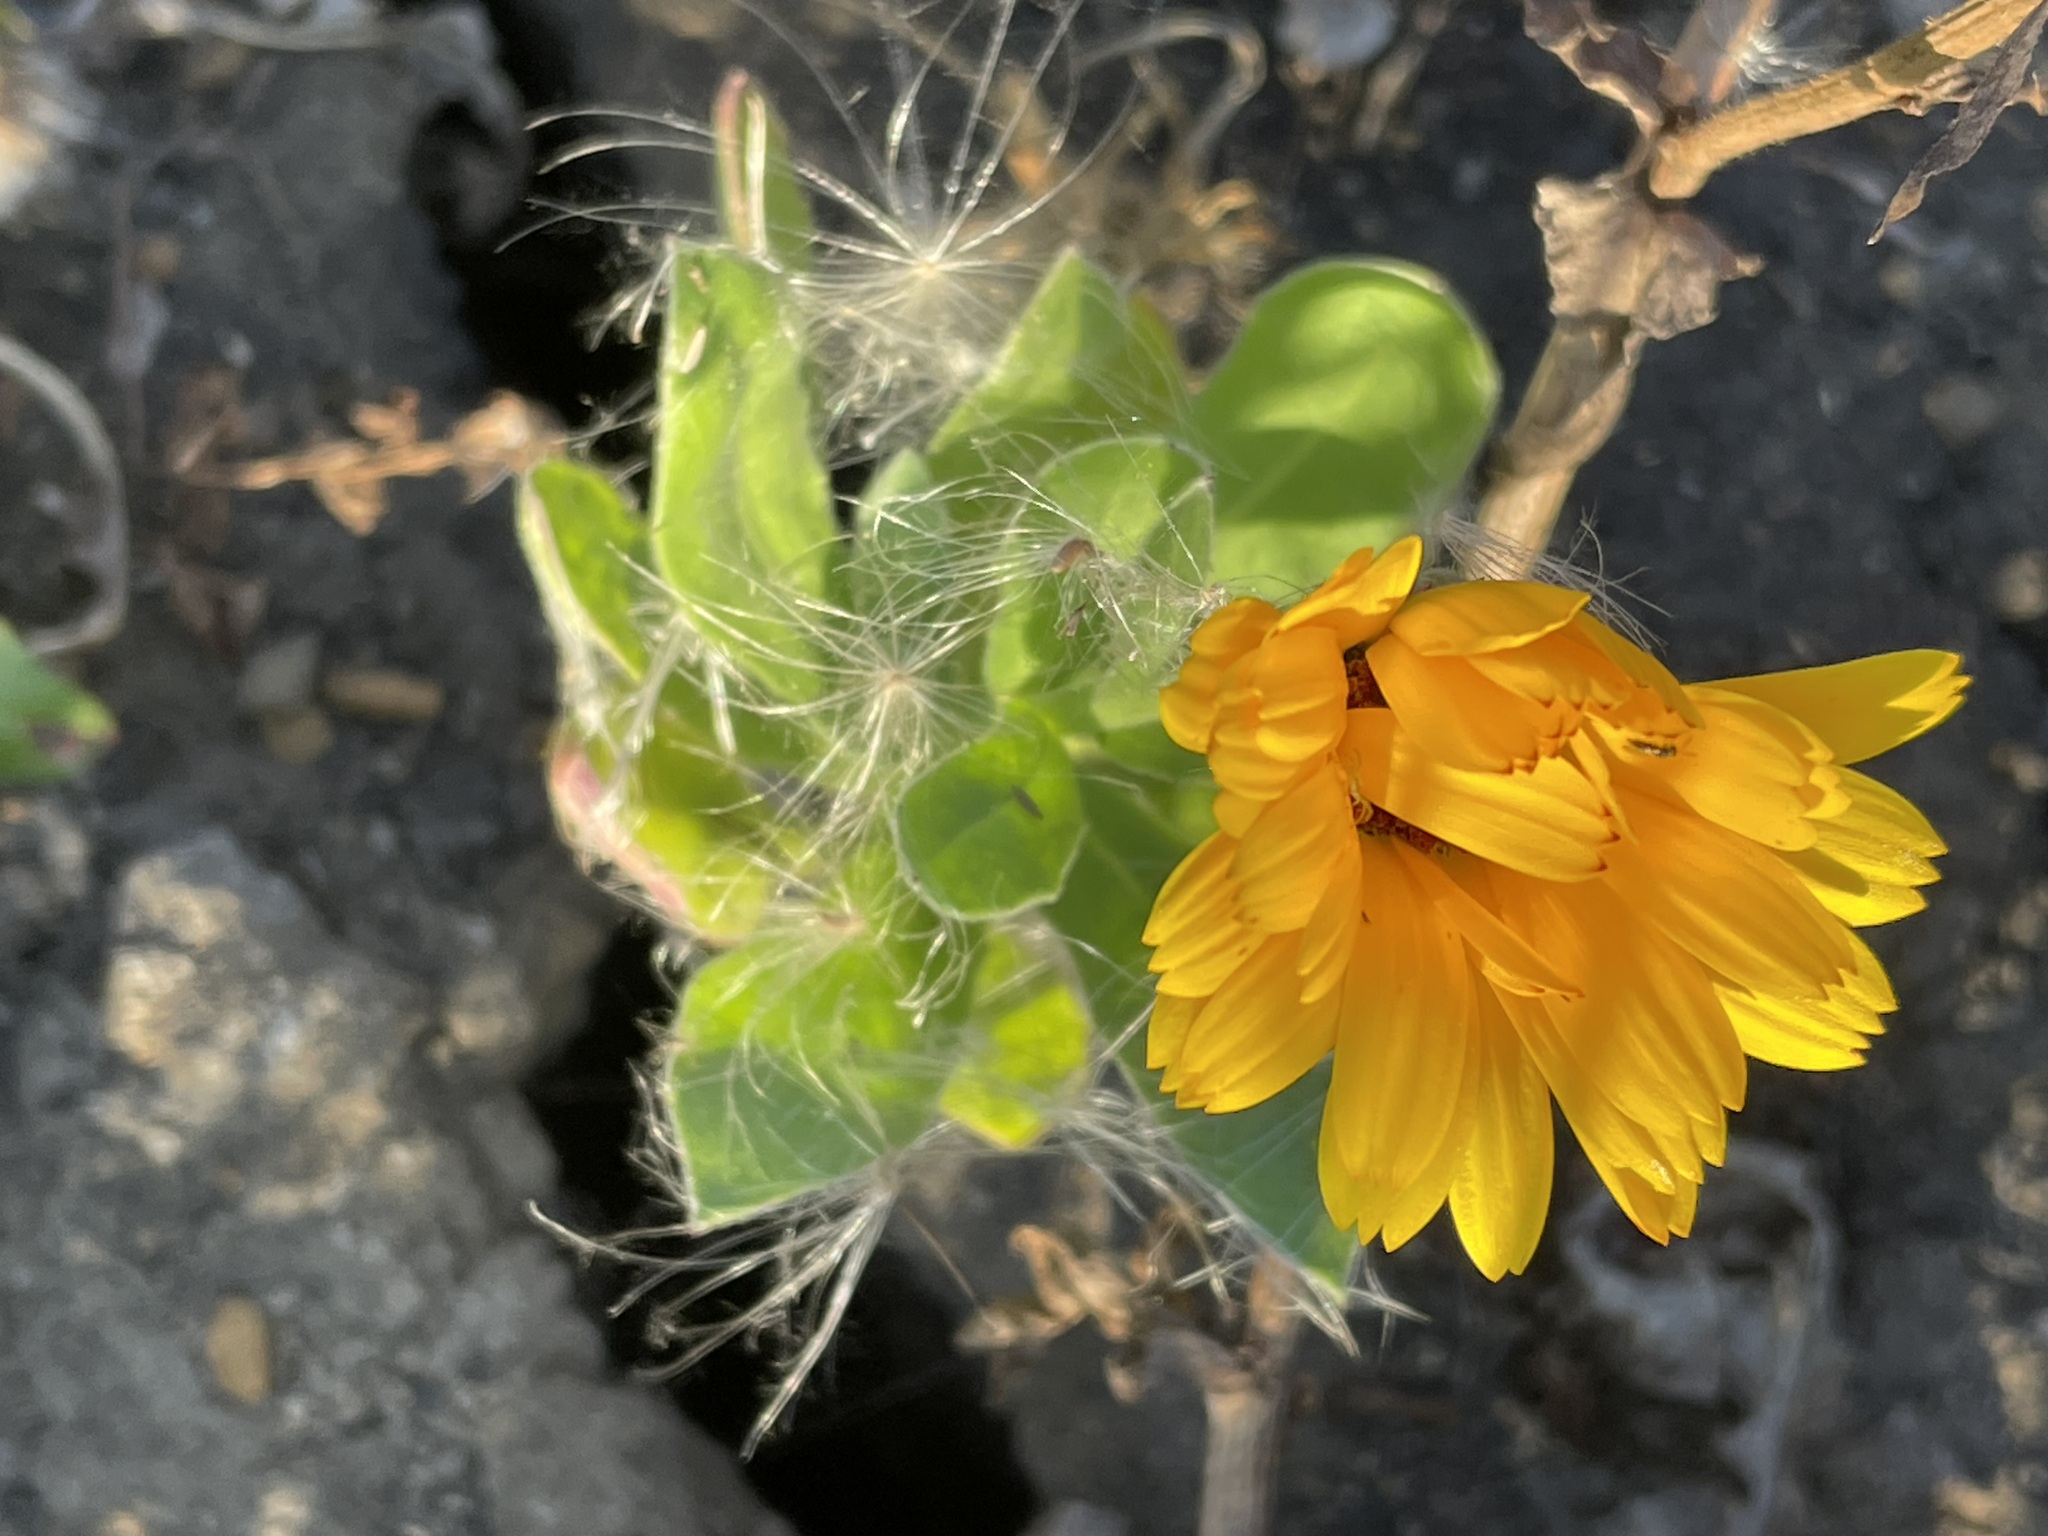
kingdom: Plantae
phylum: Tracheophyta
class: Magnoliopsida
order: Asterales
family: Asteraceae
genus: Calendula
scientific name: Calendula officinalis
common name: Pot marigold
